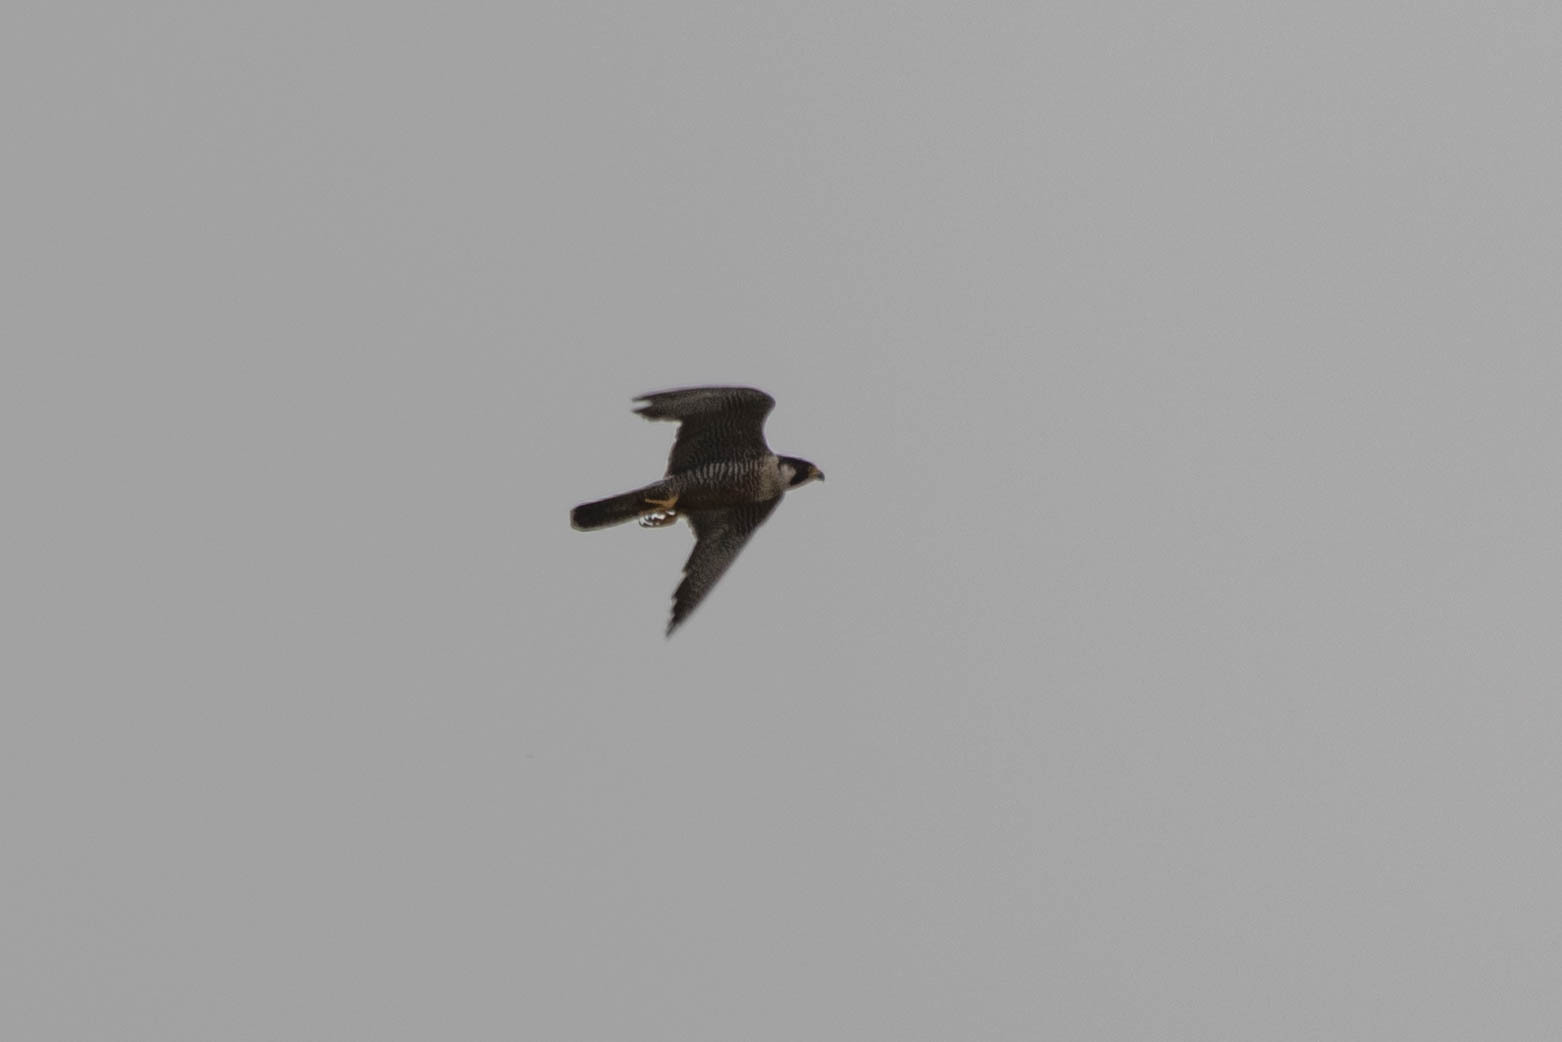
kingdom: Animalia
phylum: Chordata
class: Aves
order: Falconiformes
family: Falconidae
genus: Falco
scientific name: Falco peregrinus
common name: Peregrine falcon
